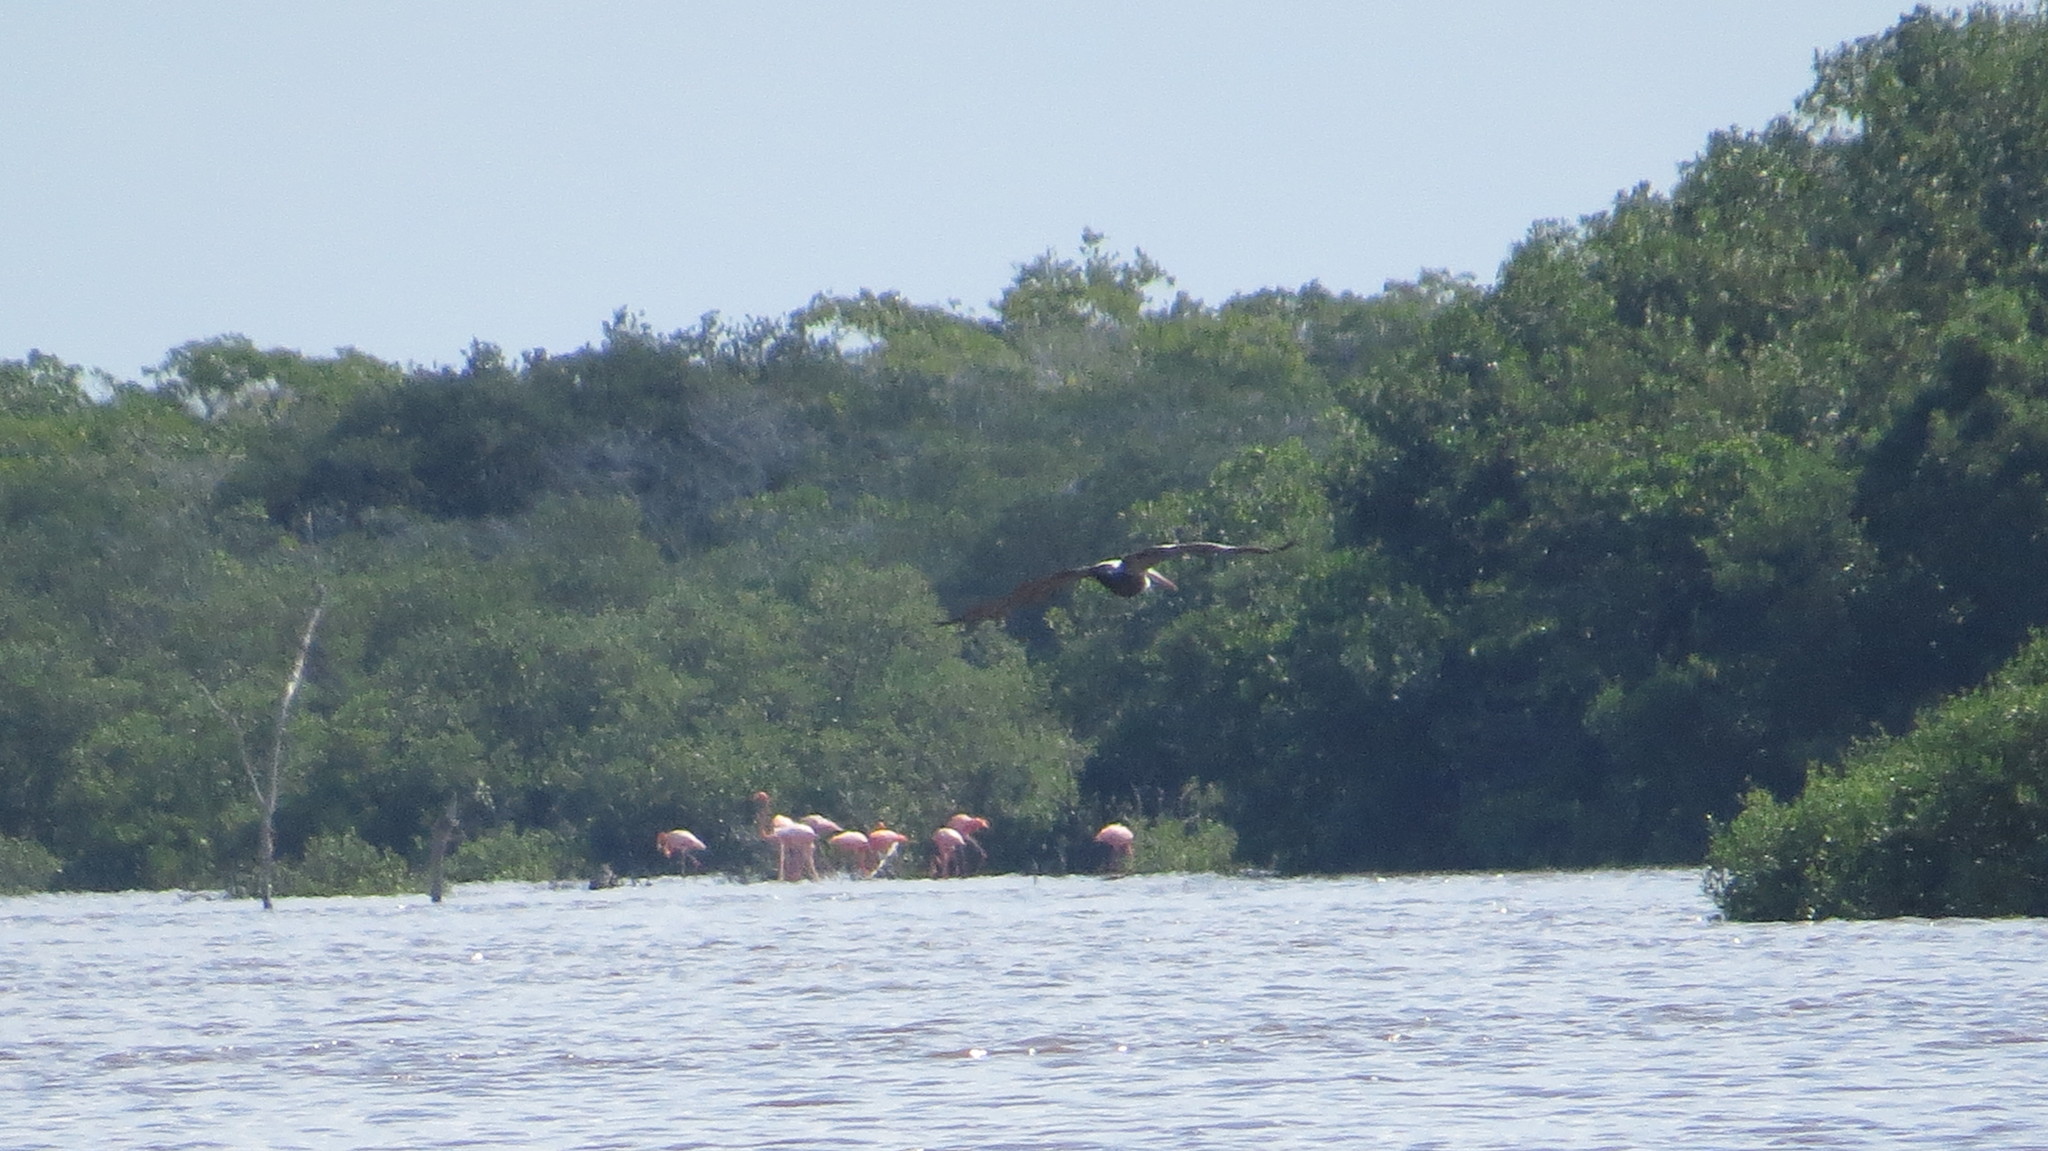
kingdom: Animalia
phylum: Chordata
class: Aves
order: Pelecaniformes
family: Pelecanidae
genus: Pelecanus
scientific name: Pelecanus occidentalis
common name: Brown pelican
